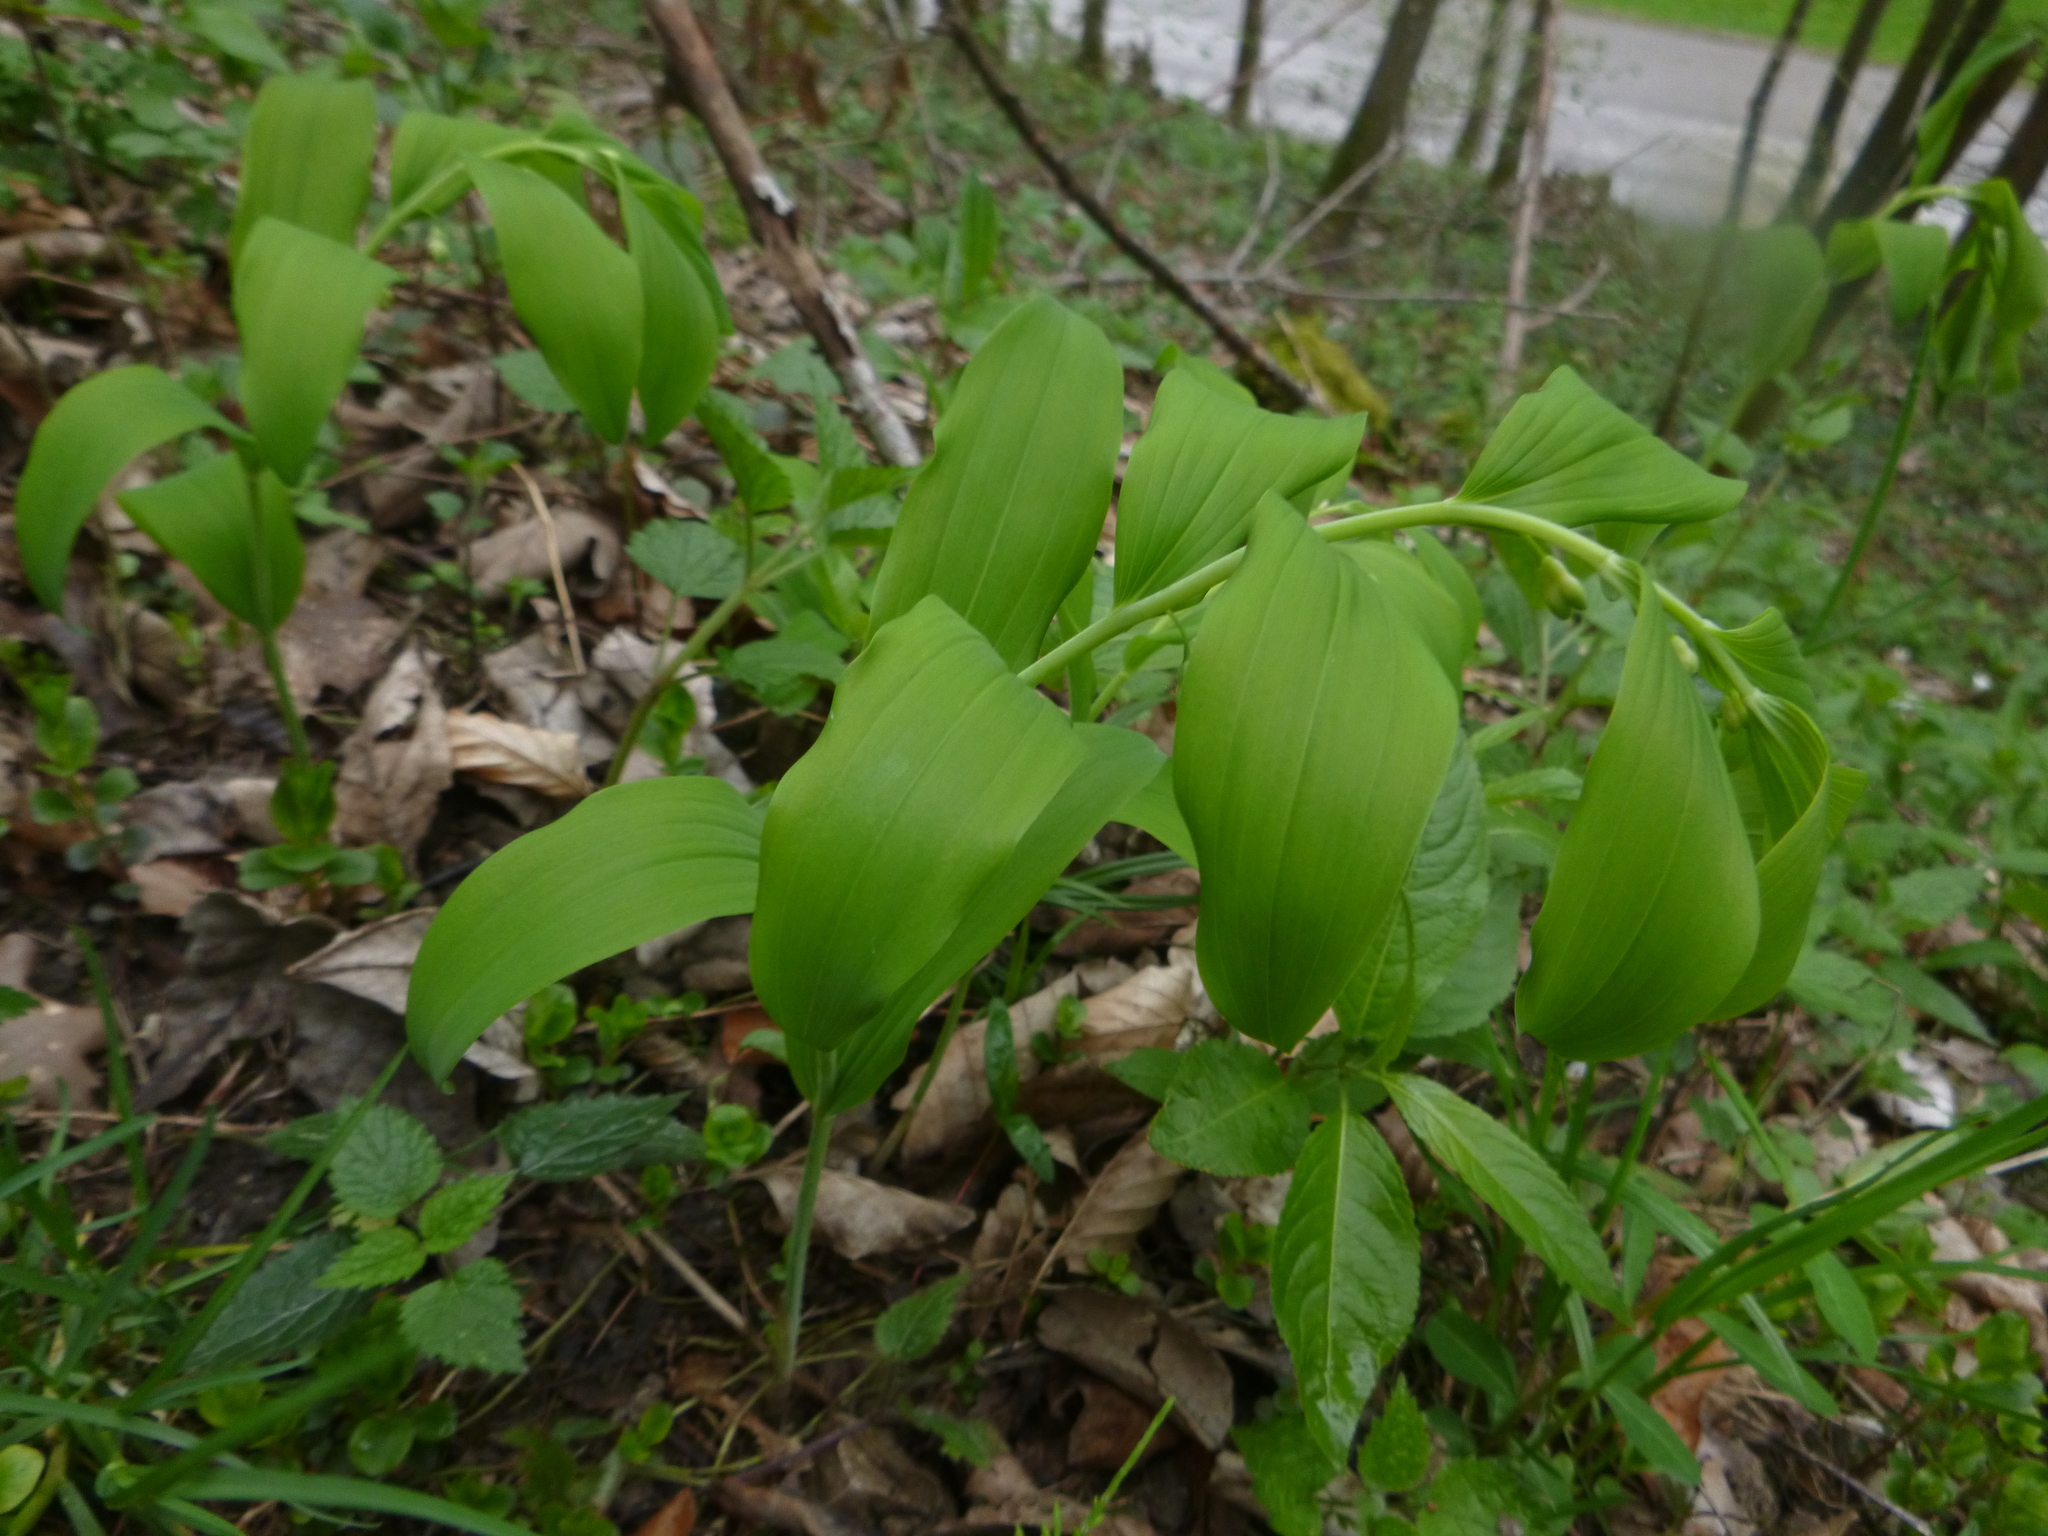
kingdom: Plantae
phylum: Tracheophyta
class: Liliopsida
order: Asparagales
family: Asparagaceae
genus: Polygonatum
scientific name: Polygonatum multiflorum
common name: Solomon's-seal
